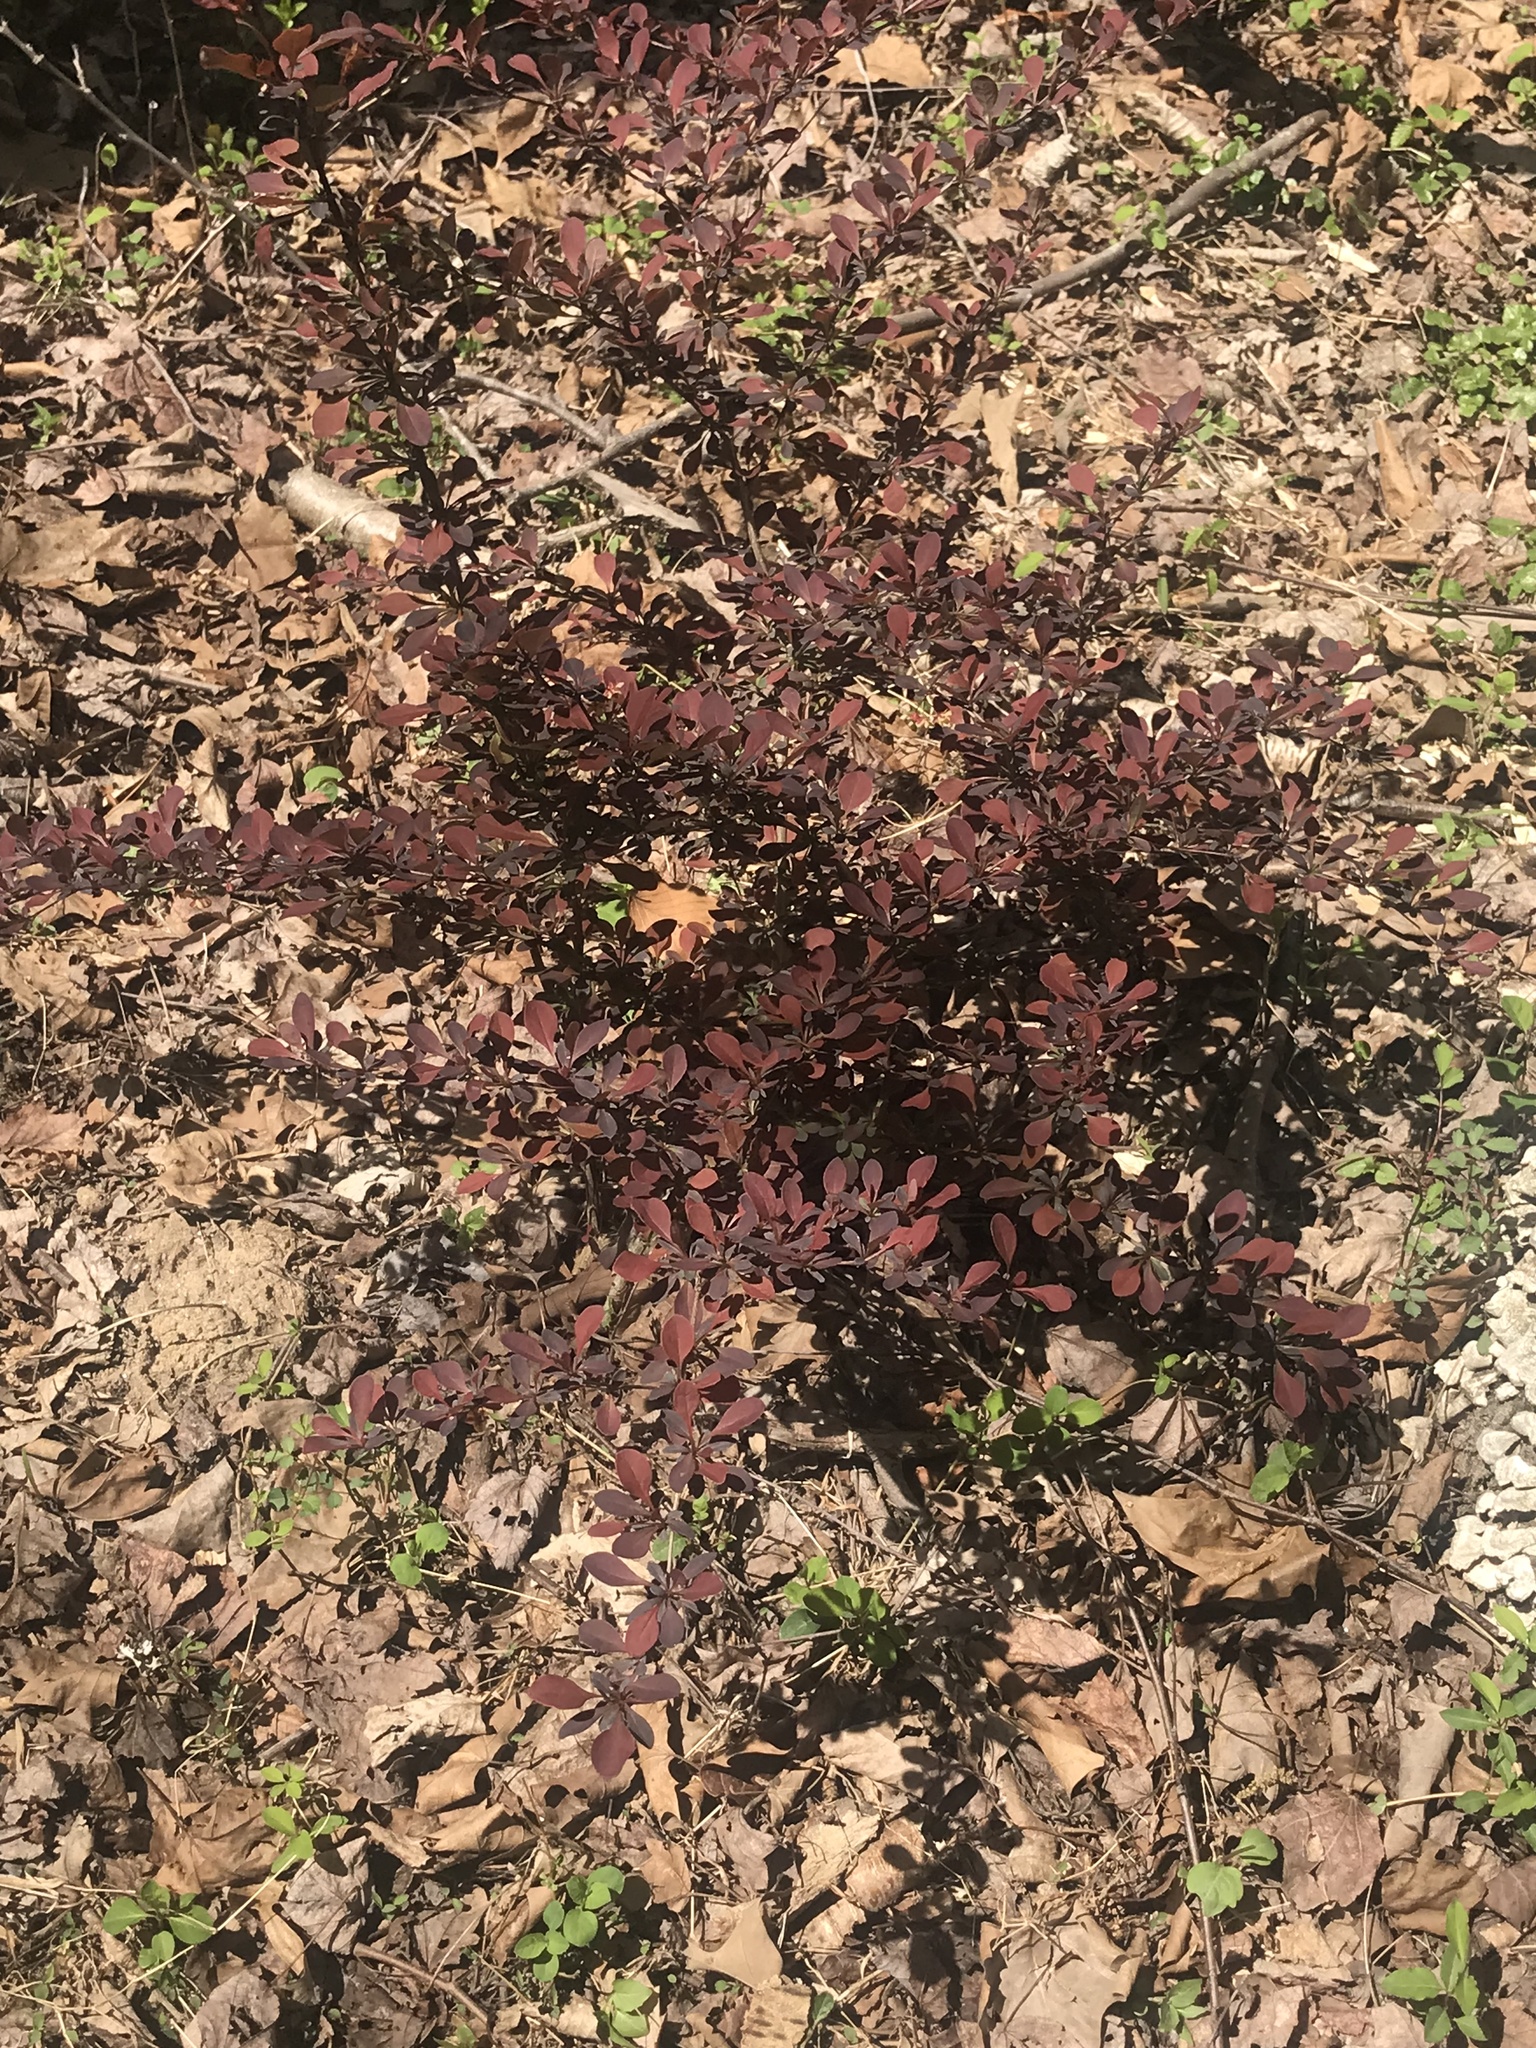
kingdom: Plantae
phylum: Tracheophyta
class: Magnoliopsida
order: Ranunculales
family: Berberidaceae
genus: Berberis
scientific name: Berberis thunbergii
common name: Japanese barberry
